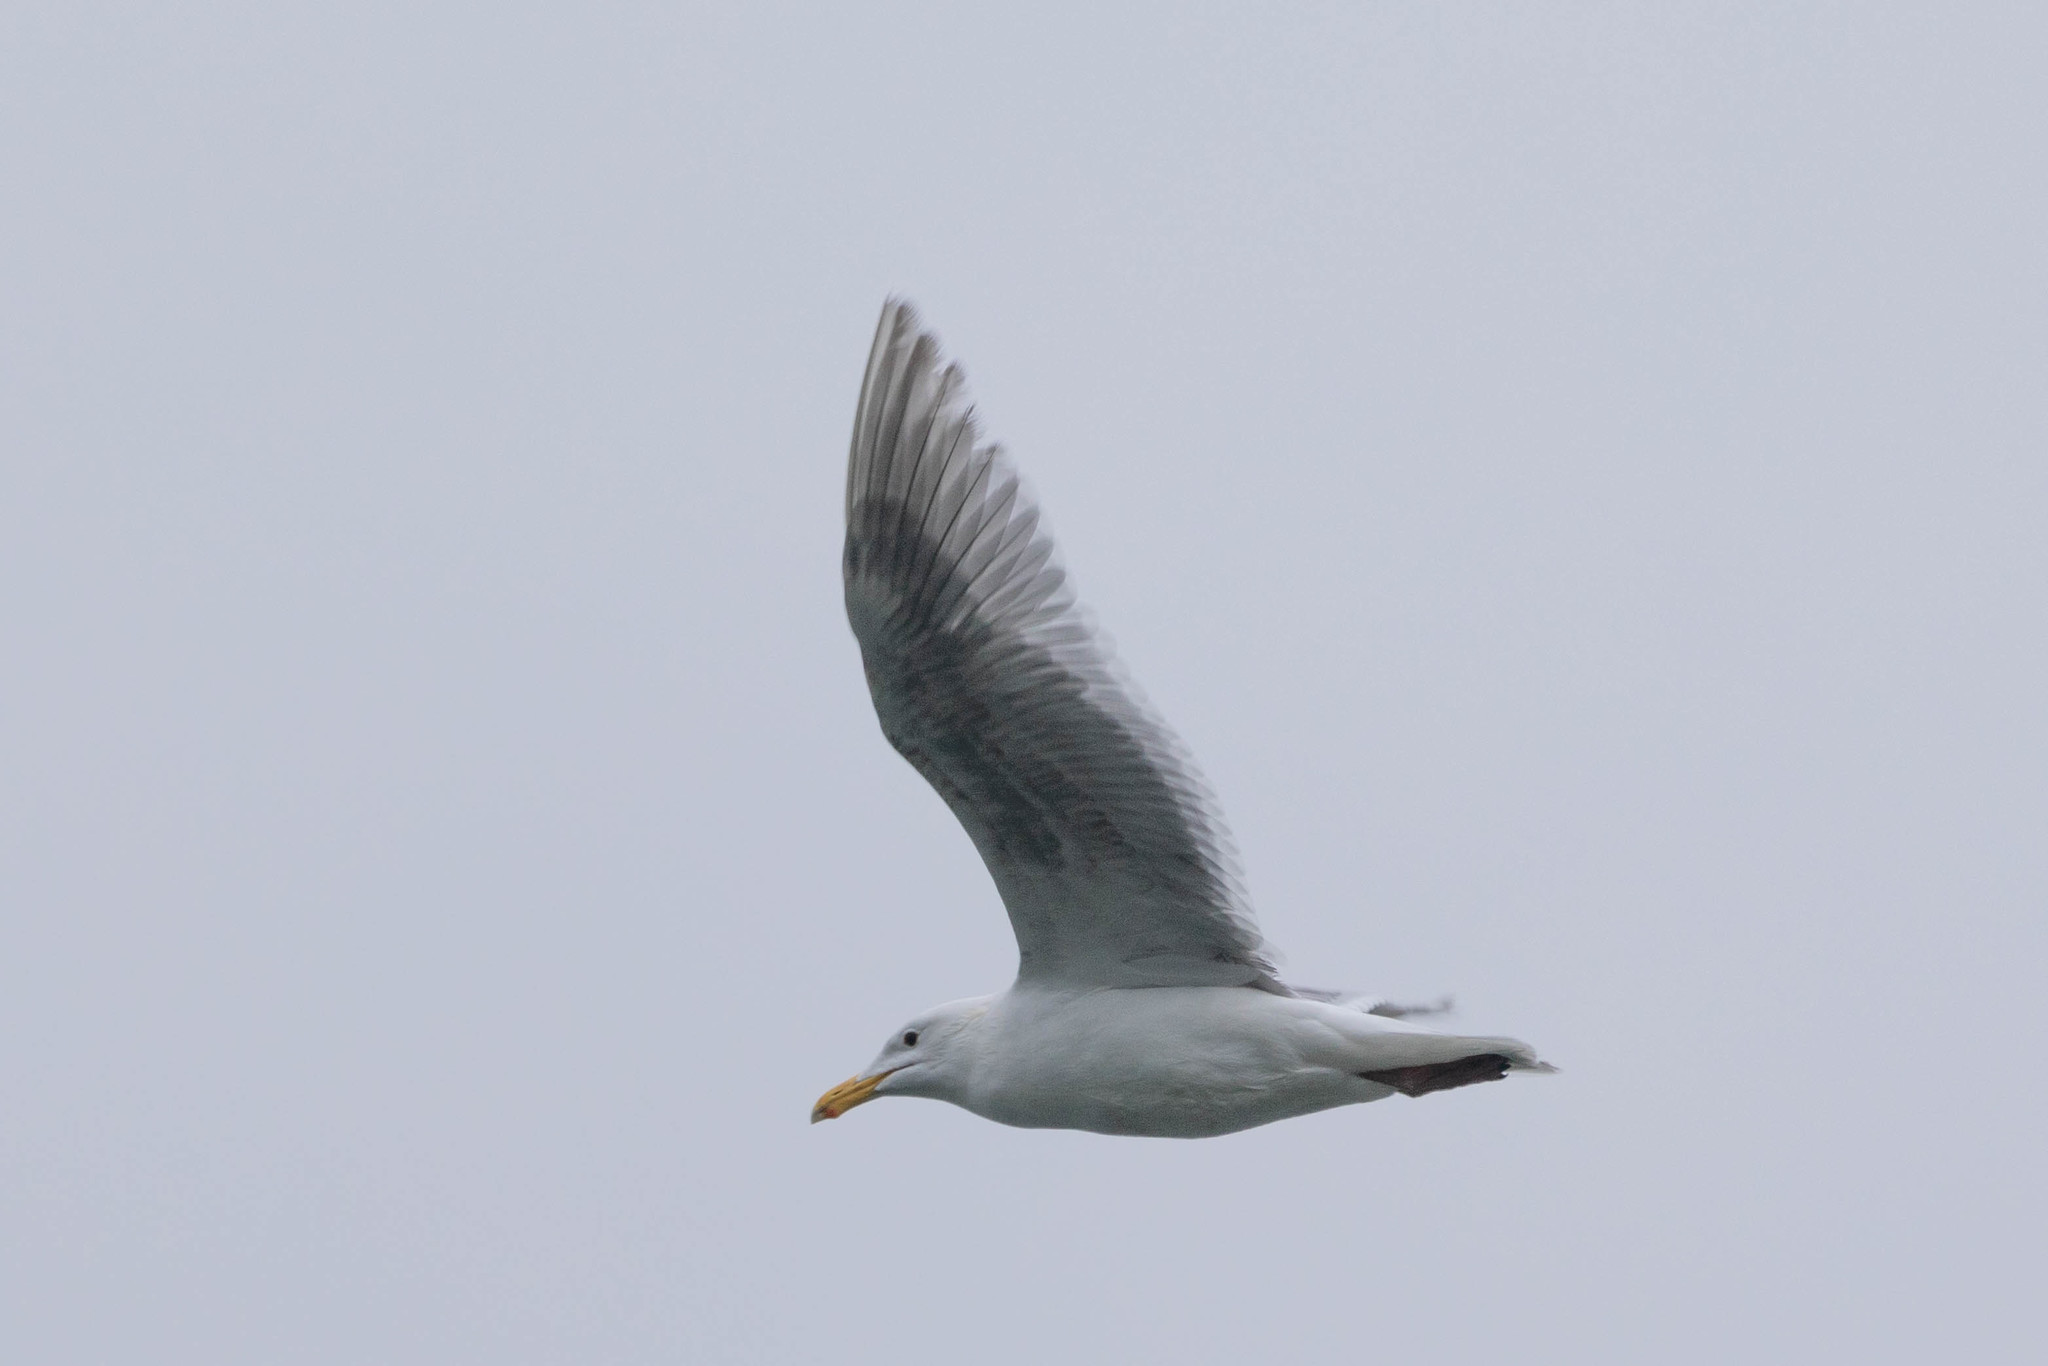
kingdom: Animalia
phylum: Chordata
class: Aves
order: Charadriiformes
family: Laridae
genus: Larus
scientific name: Larus glaucescens
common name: Glaucous-winged gull
